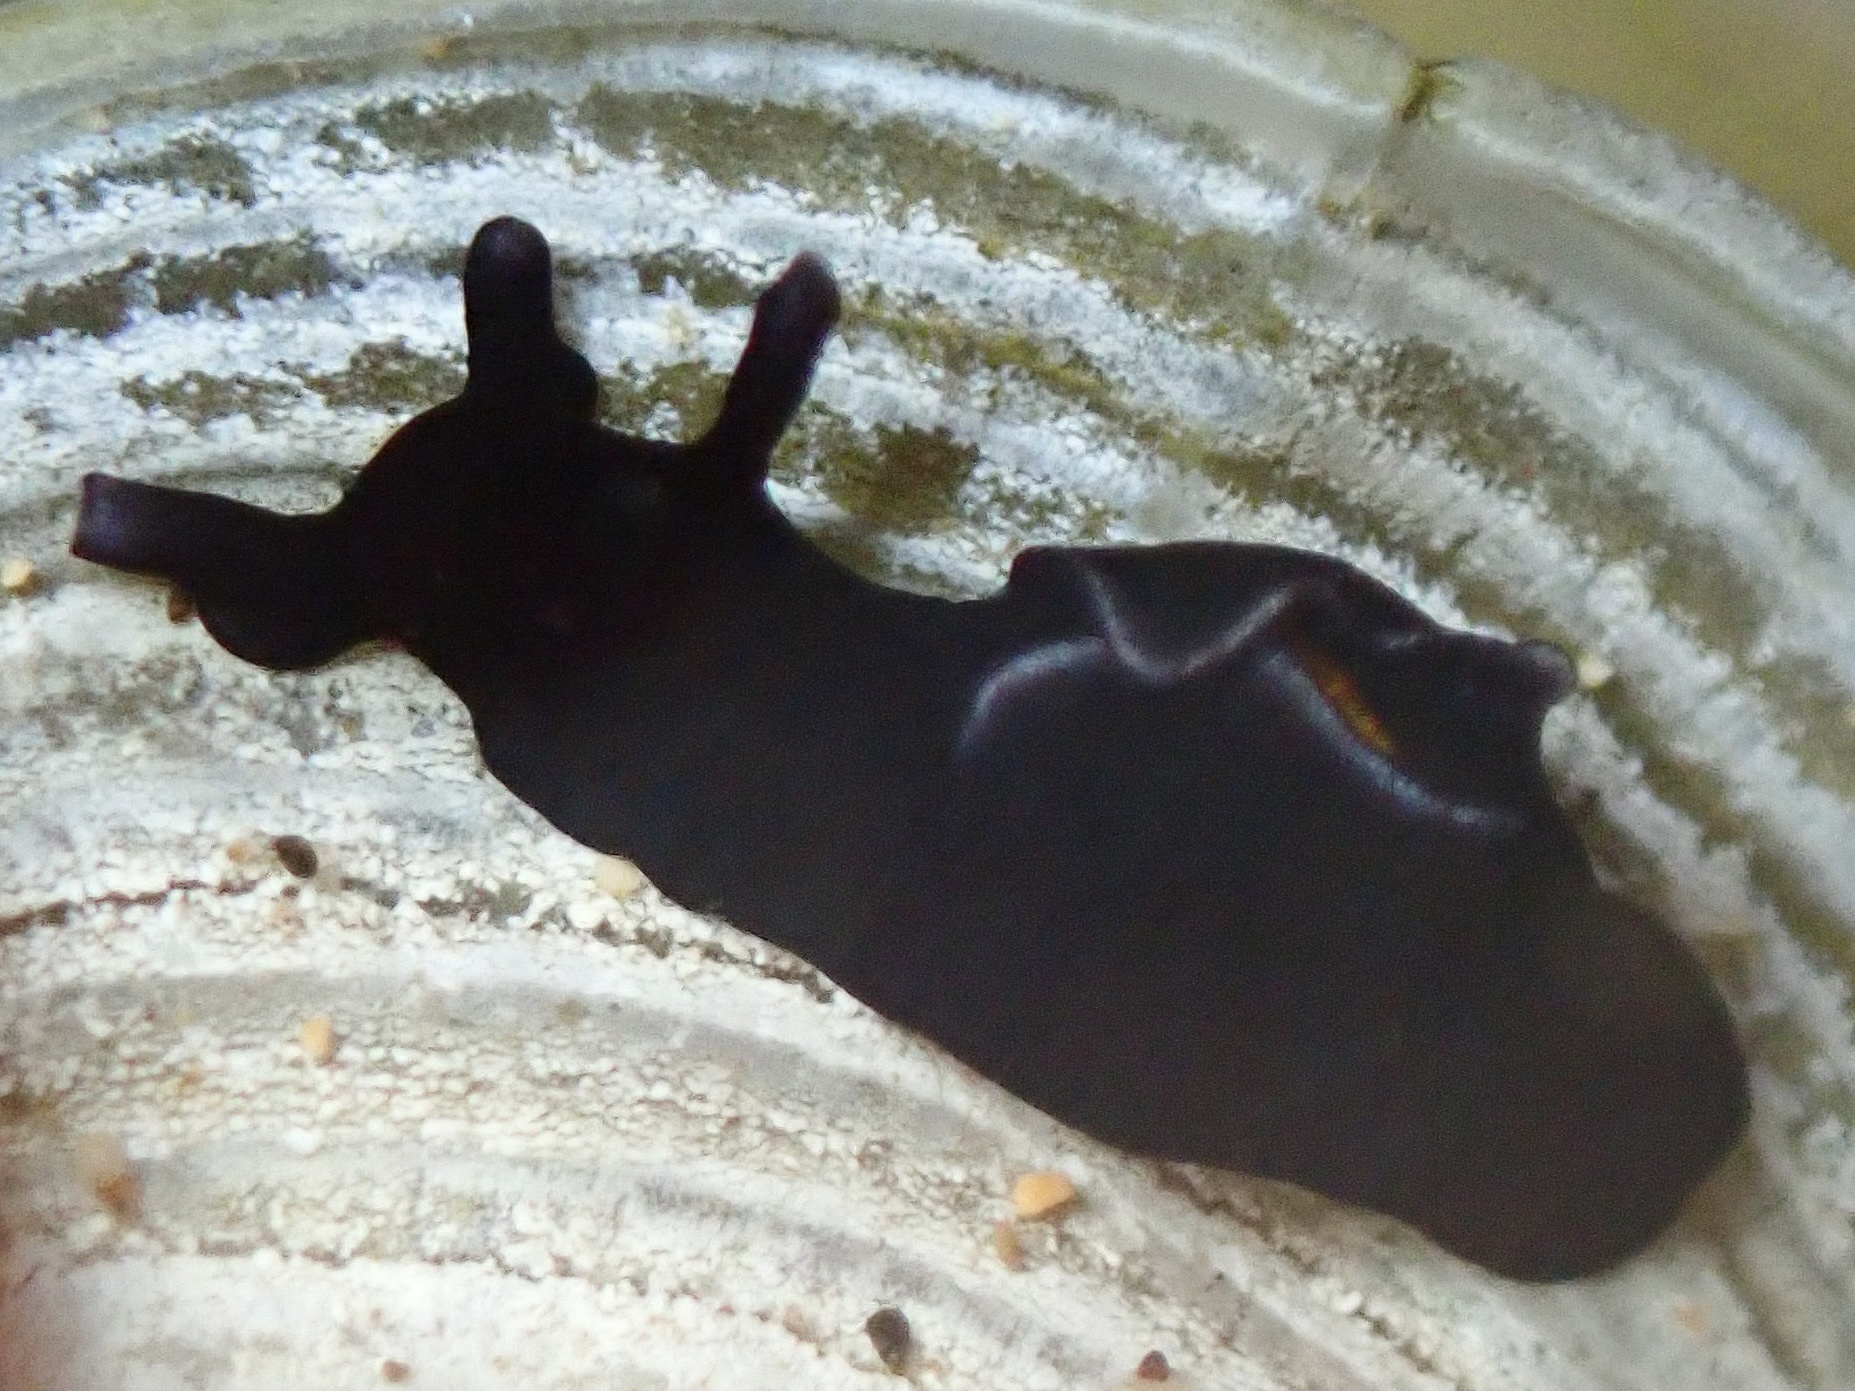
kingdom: Animalia
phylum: Mollusca
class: Gastropoda
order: Aplysiida
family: Aplysiidae
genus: Aplysia
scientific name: Aplysia elongata
